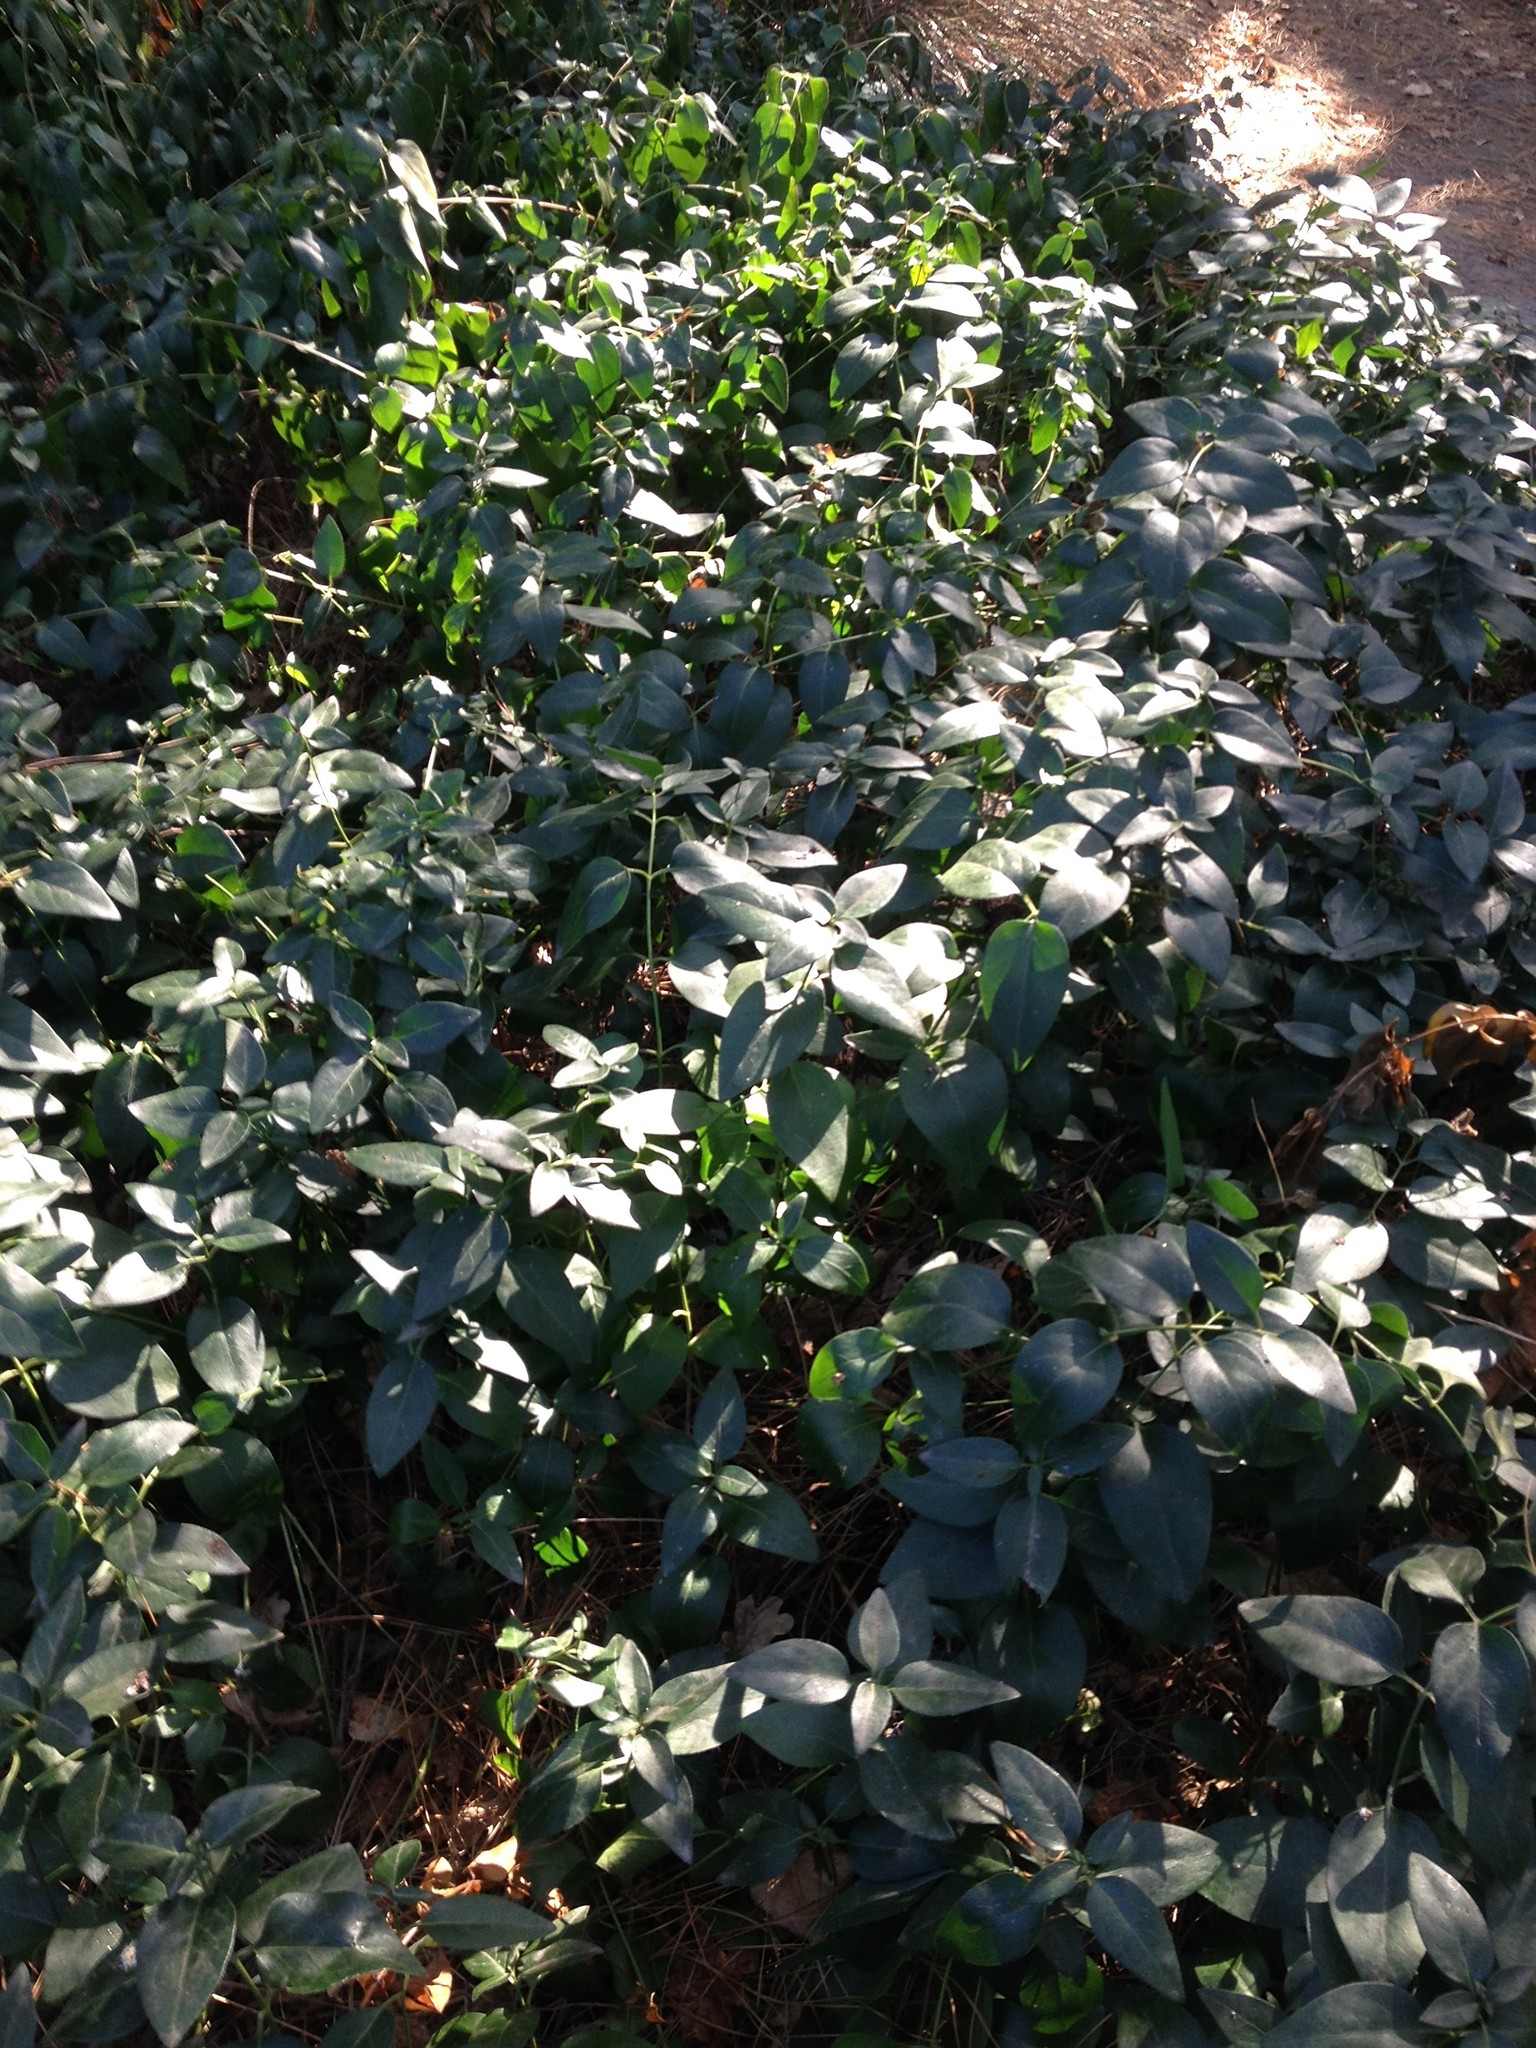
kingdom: Plantae
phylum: Tracheophyta
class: Magnoliopsida
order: Gentianales
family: Apocynaceae
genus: Vinca
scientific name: Vinca major
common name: Greater periwinkle
